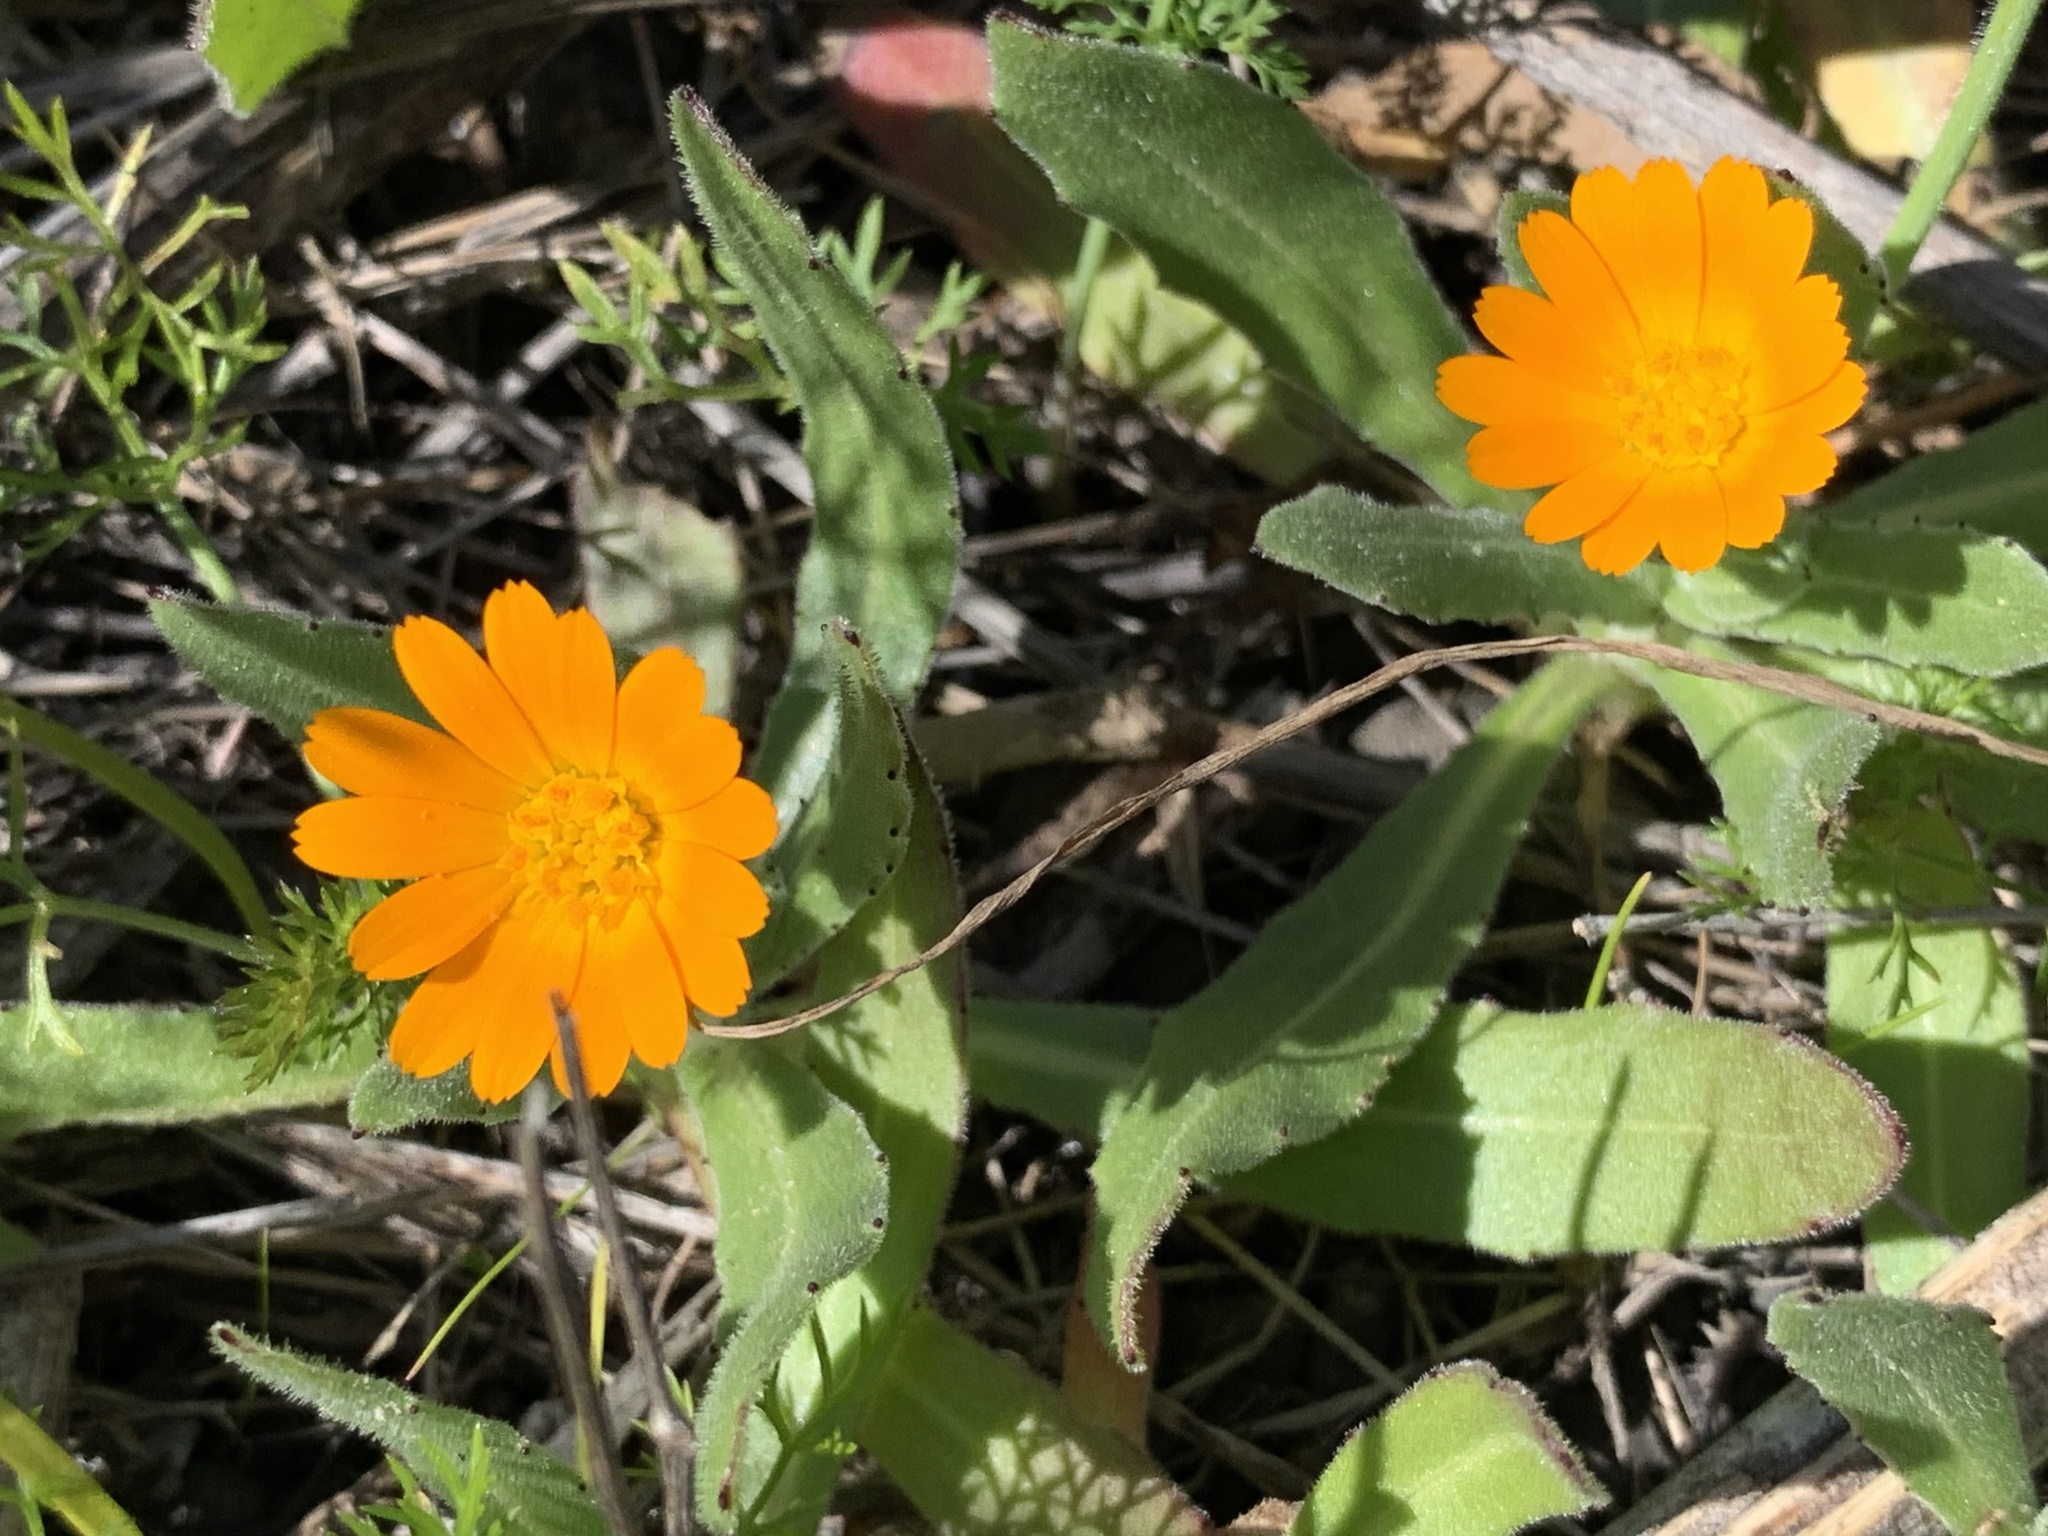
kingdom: Plantae
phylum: Tracheophyta
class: Magnoliopsida
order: Asterales
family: Asteraceae
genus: Calendula
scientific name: Calendula arvensis
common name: Field marigold
